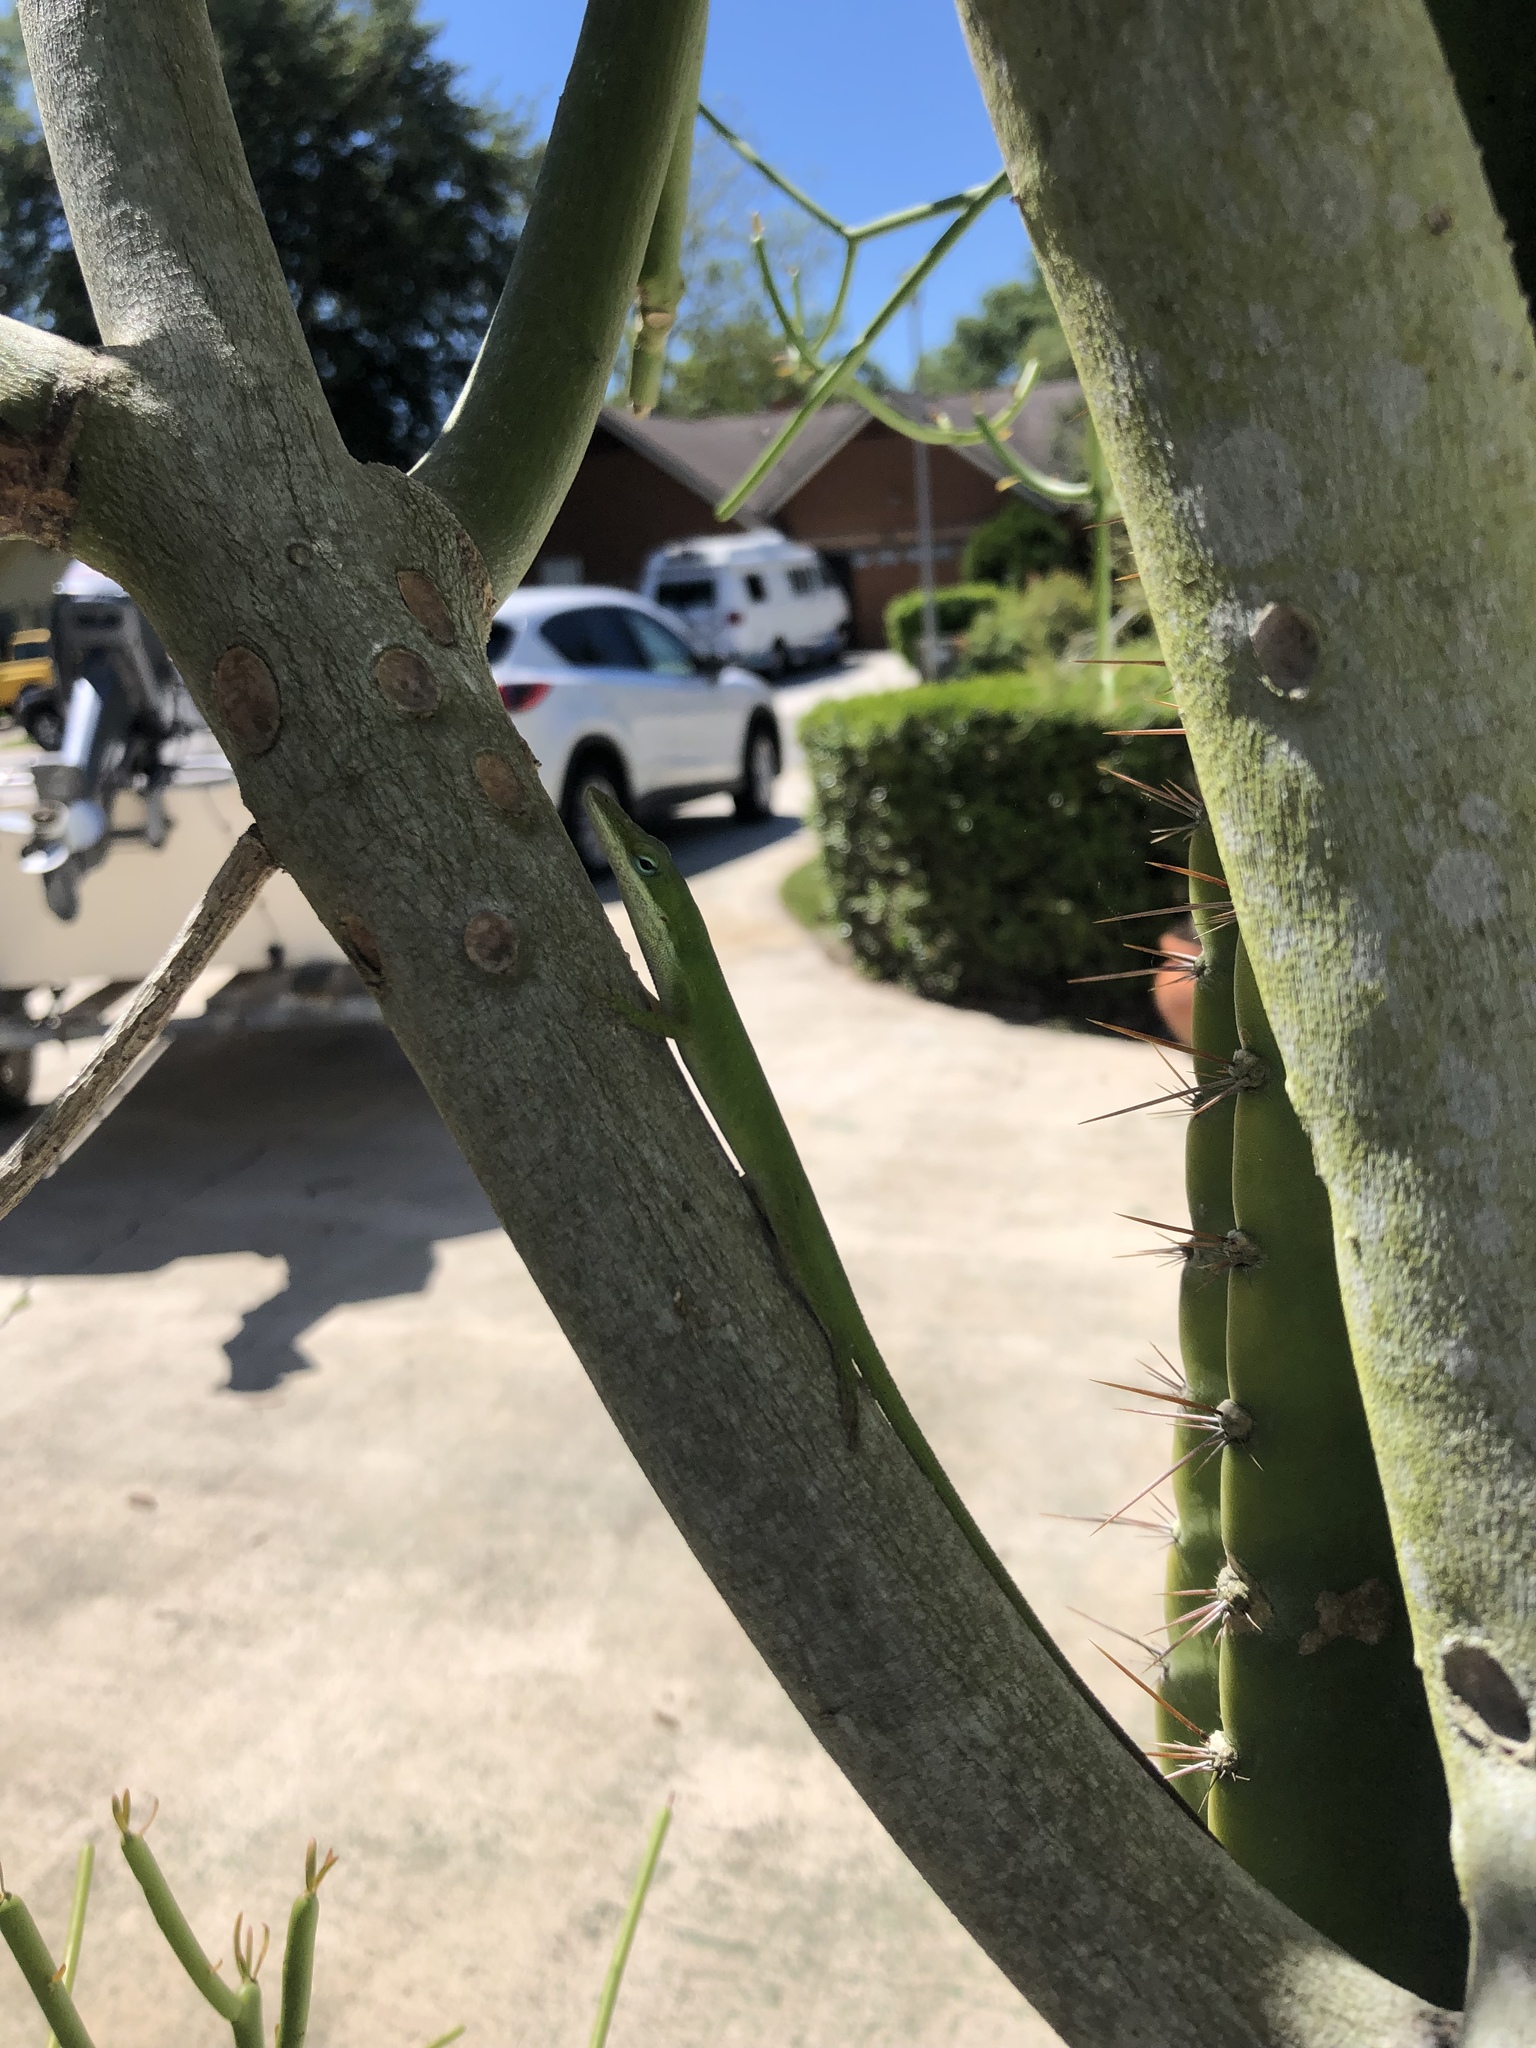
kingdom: Animalia
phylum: Chordata
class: Squamata
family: Dactyloidae
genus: Anolis
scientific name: Anolis carolinensis
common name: Green anole
